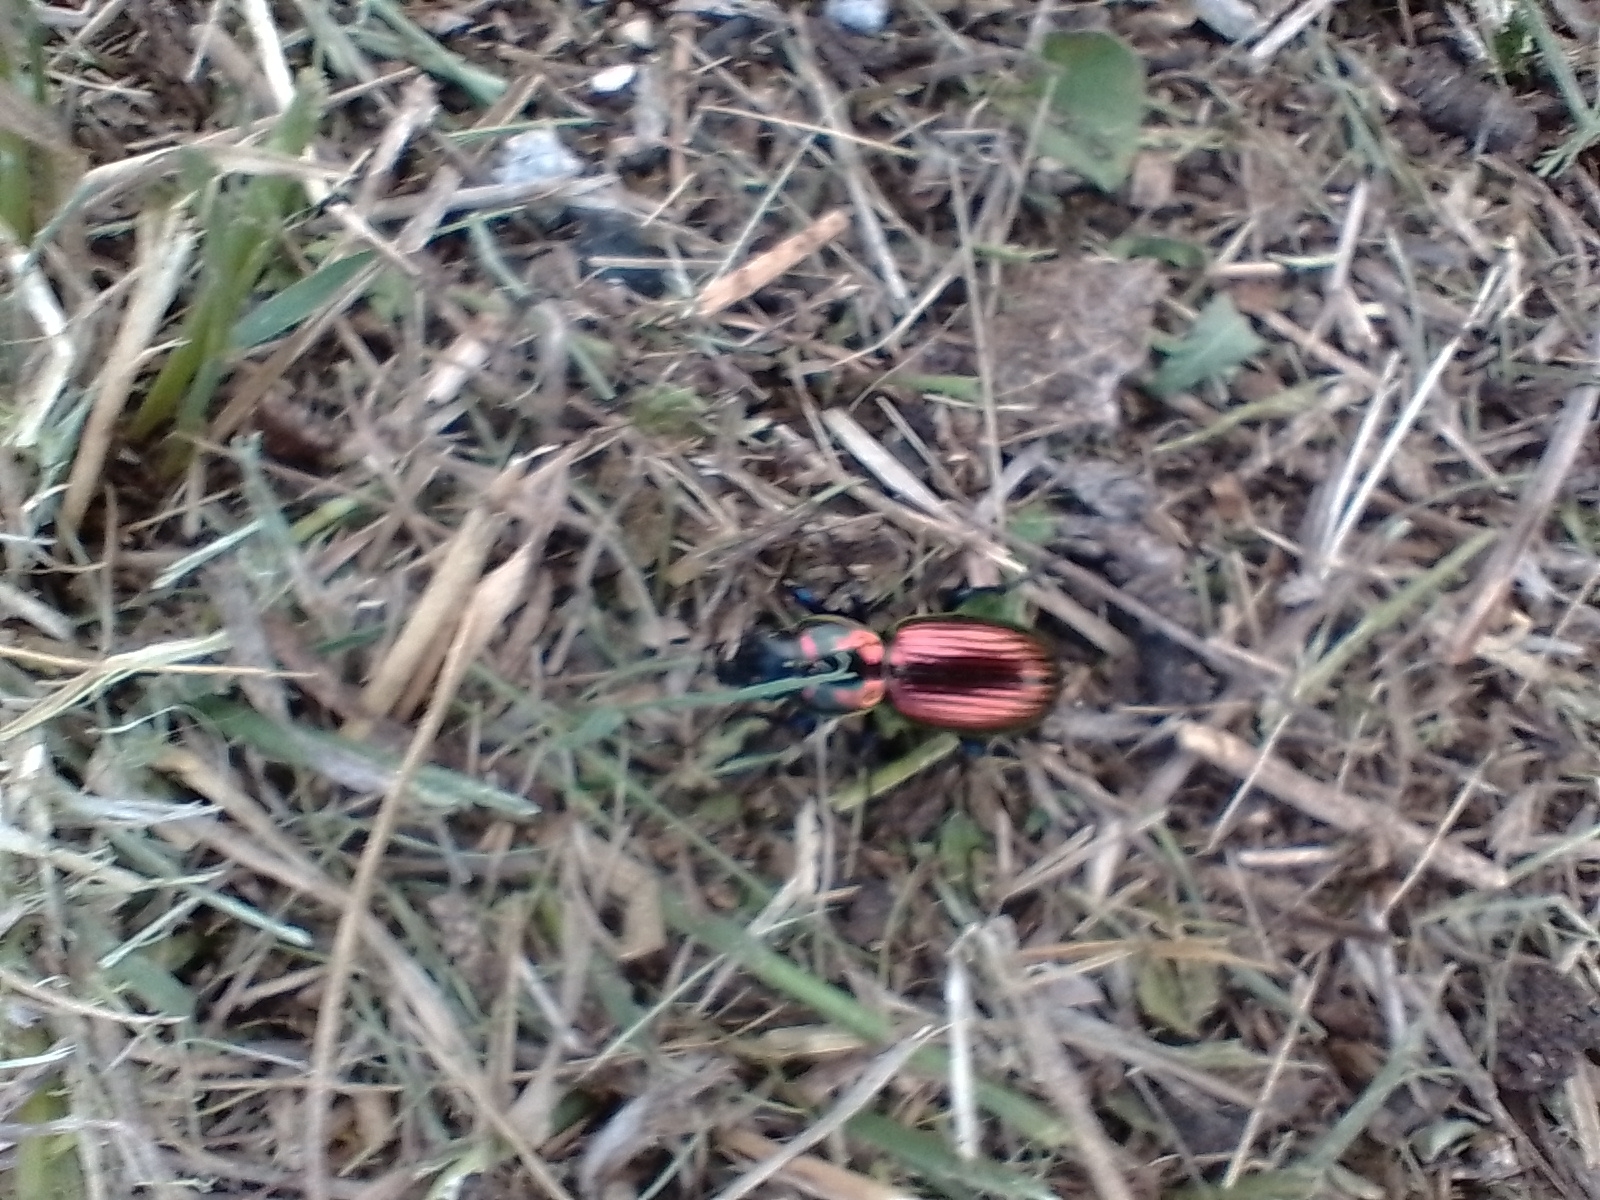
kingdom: Animalia
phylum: Arthropoda
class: Insecta
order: Coleoptera
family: Carabidae
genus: Baripus
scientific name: Baripus comechingonensis
